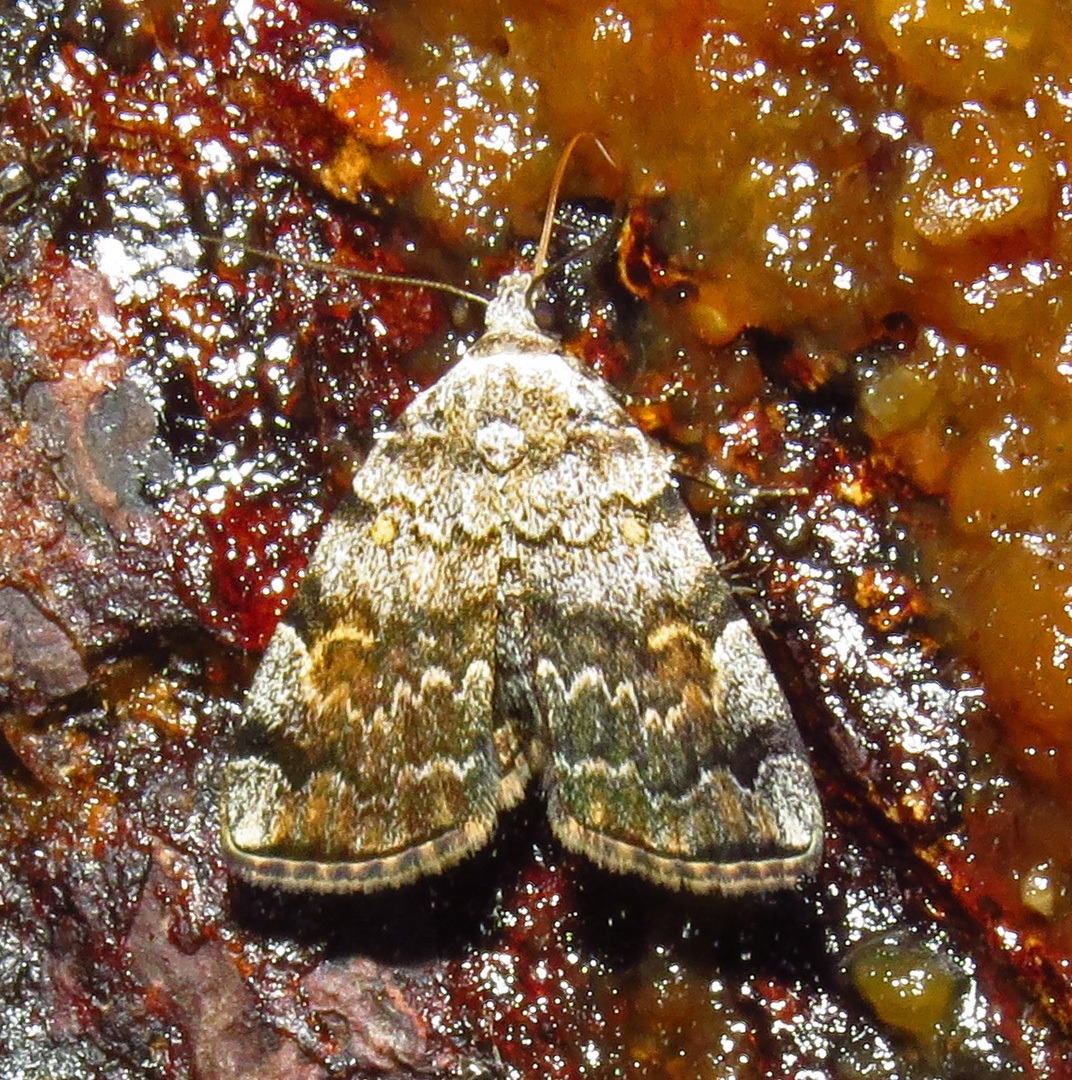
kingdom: Animalia
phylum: Arthropoda
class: Insecta
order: Lepidoptera
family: Erebidae
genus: Idia
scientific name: Idia americalis
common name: American idia moth
